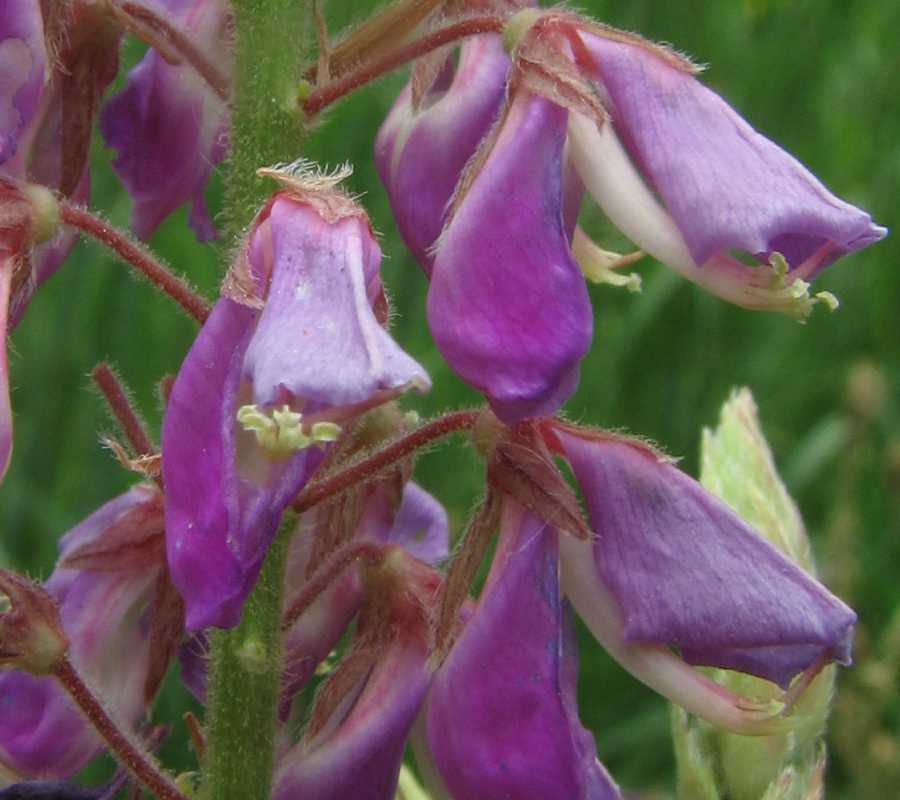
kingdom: Plantae
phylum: Tracheophyta
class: Magnoliopsida
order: Fabales
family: Fabaceae
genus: Desmodium
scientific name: Desmodium canadense
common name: Canada tick-trefoil
